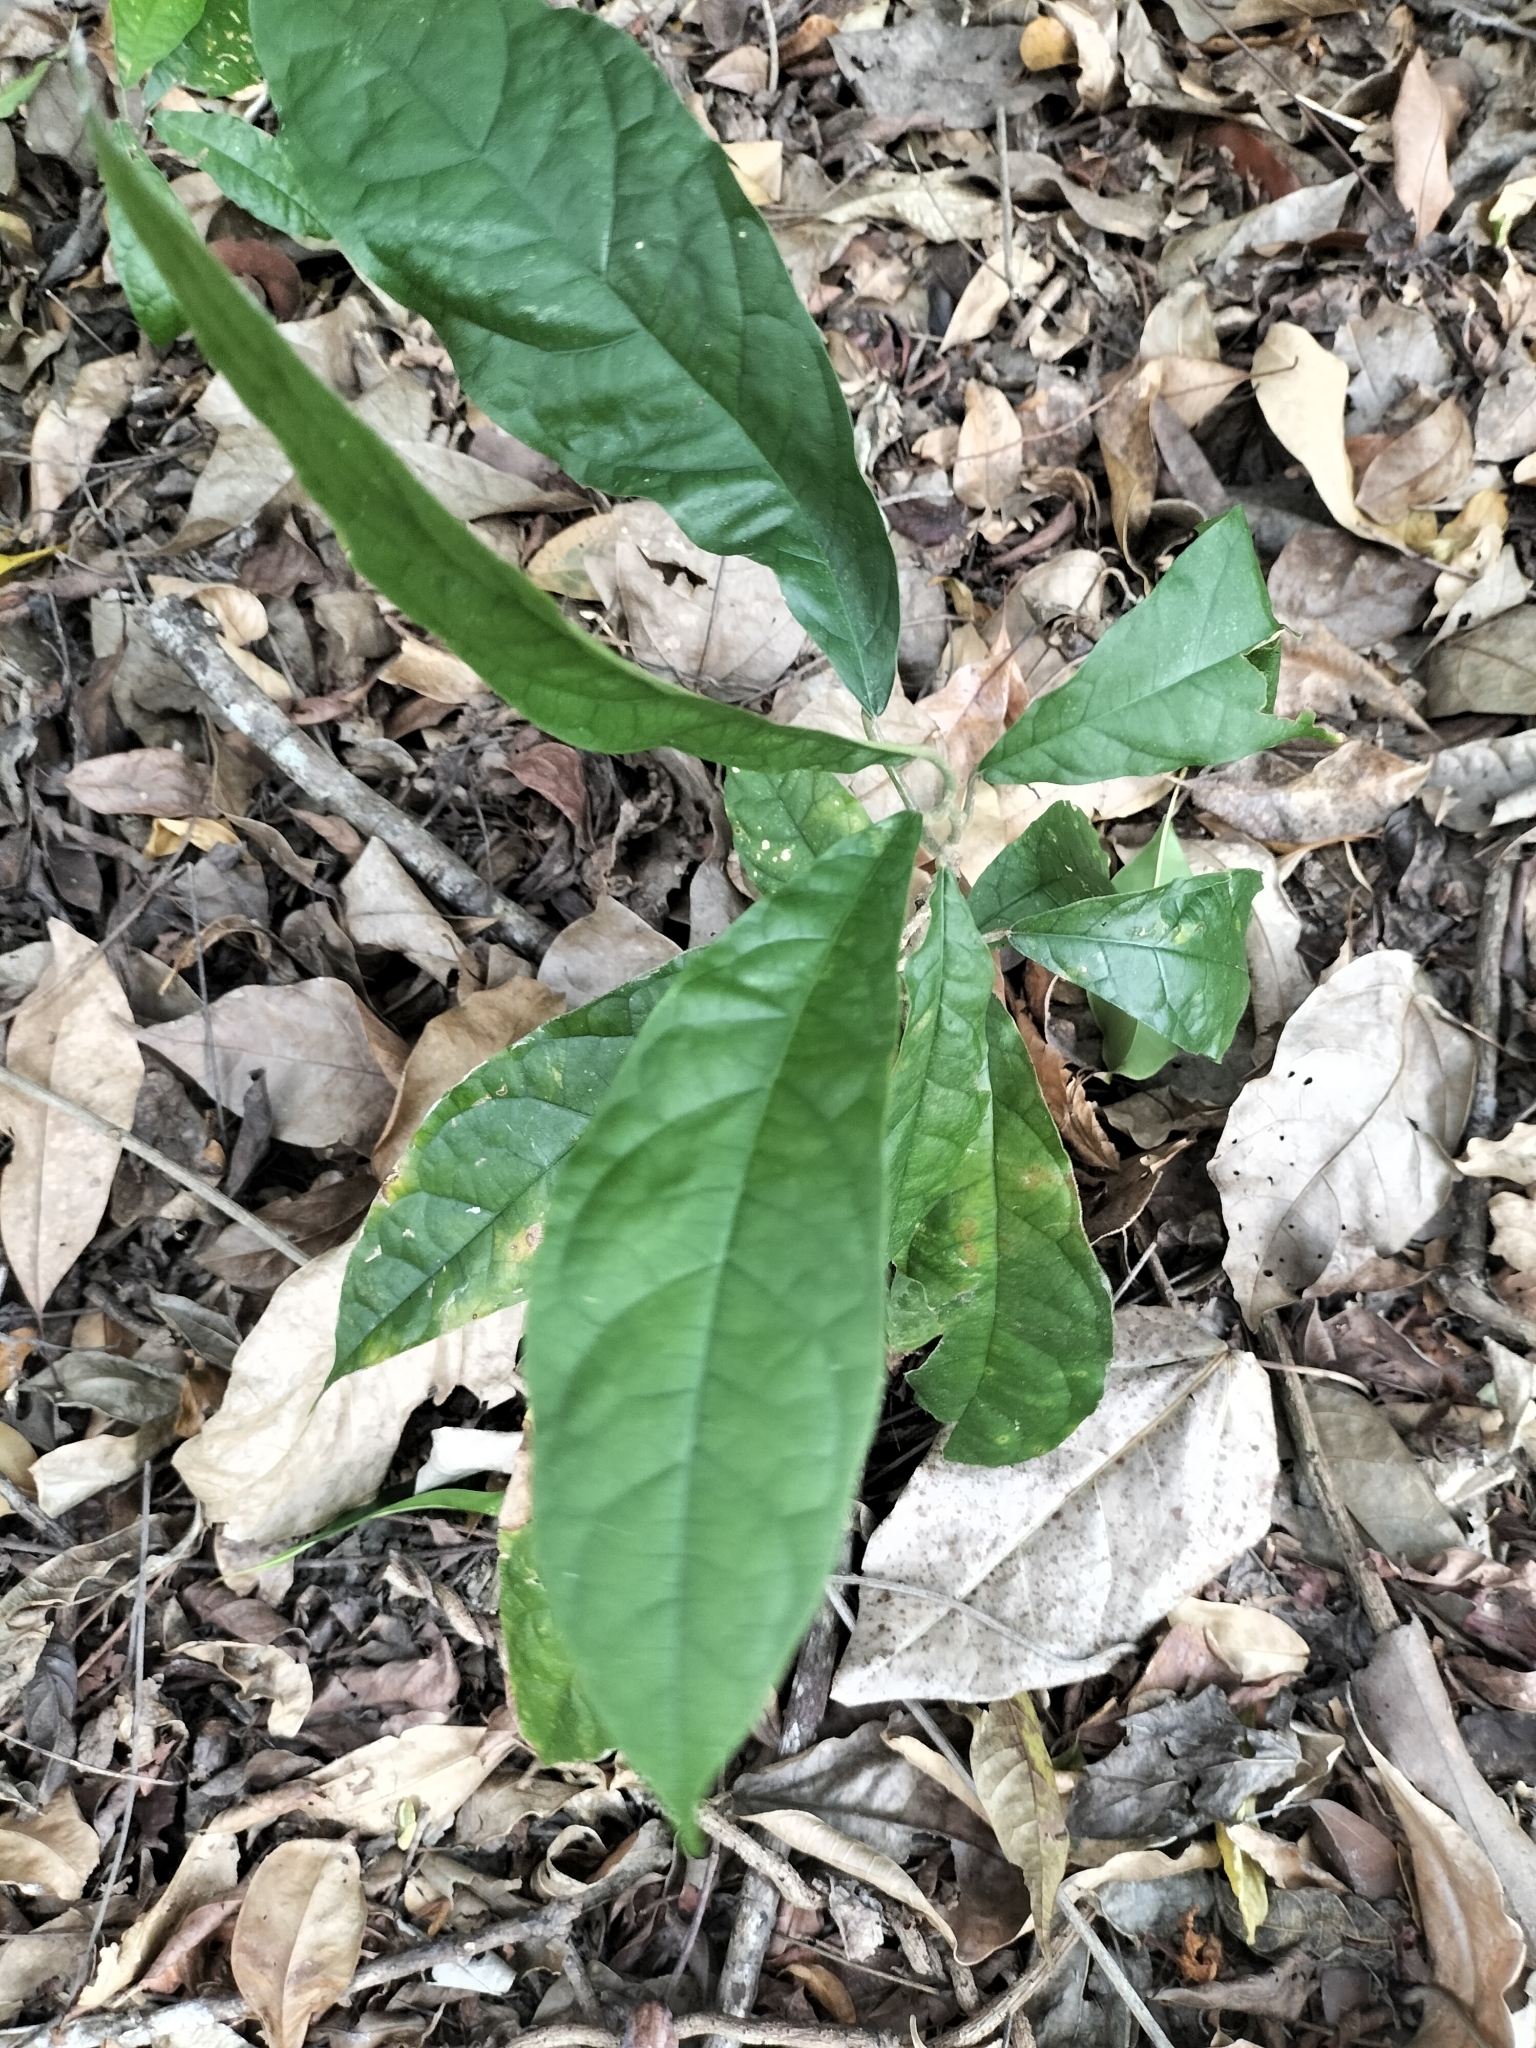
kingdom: Plantae
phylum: Tracheophyta
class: Magnoliopsida
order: Lamiales
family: Lamiaceae
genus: Oxera
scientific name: Oxera splendida
